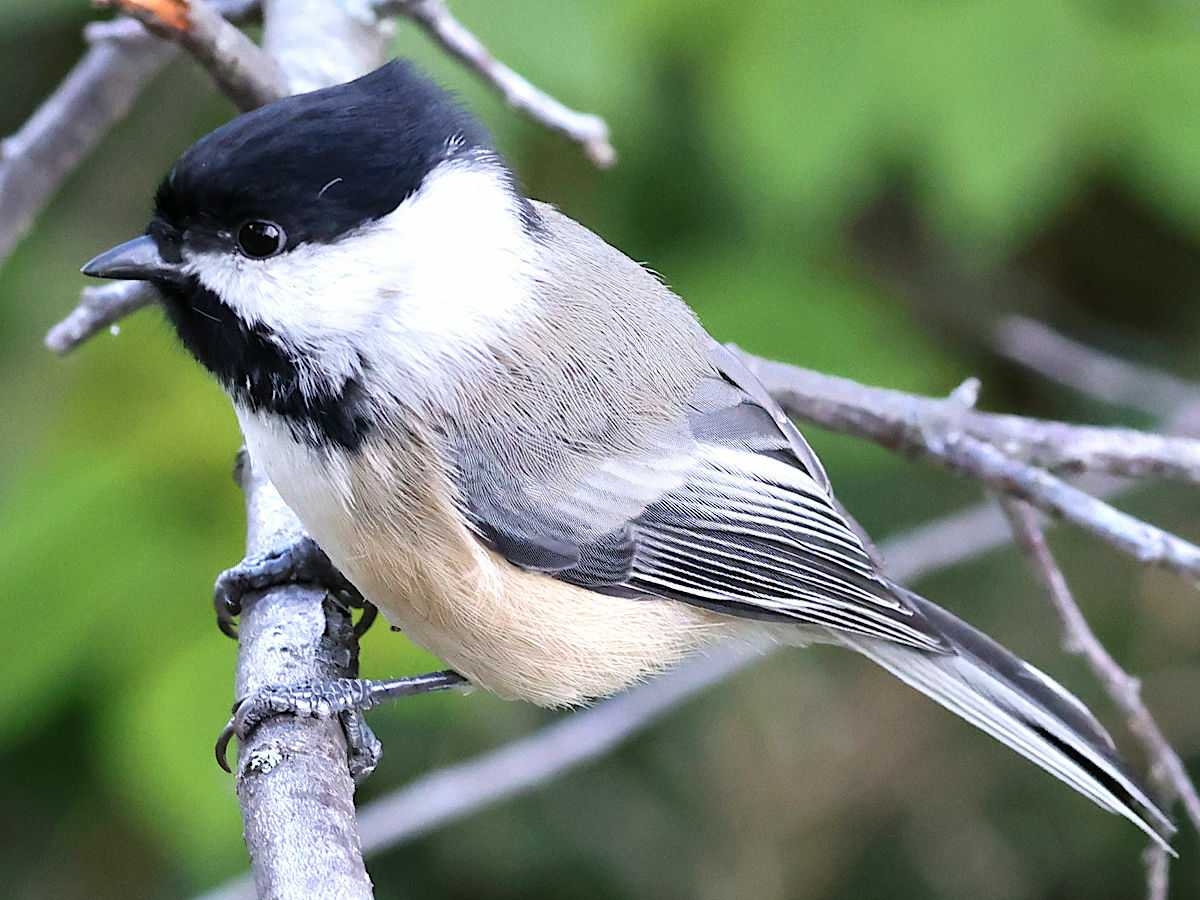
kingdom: Animalia
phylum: Chordata
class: Aves
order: Passeriformes
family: Paridae
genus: Poecile
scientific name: Poecile atricapillus
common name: Black-capped chickadee
